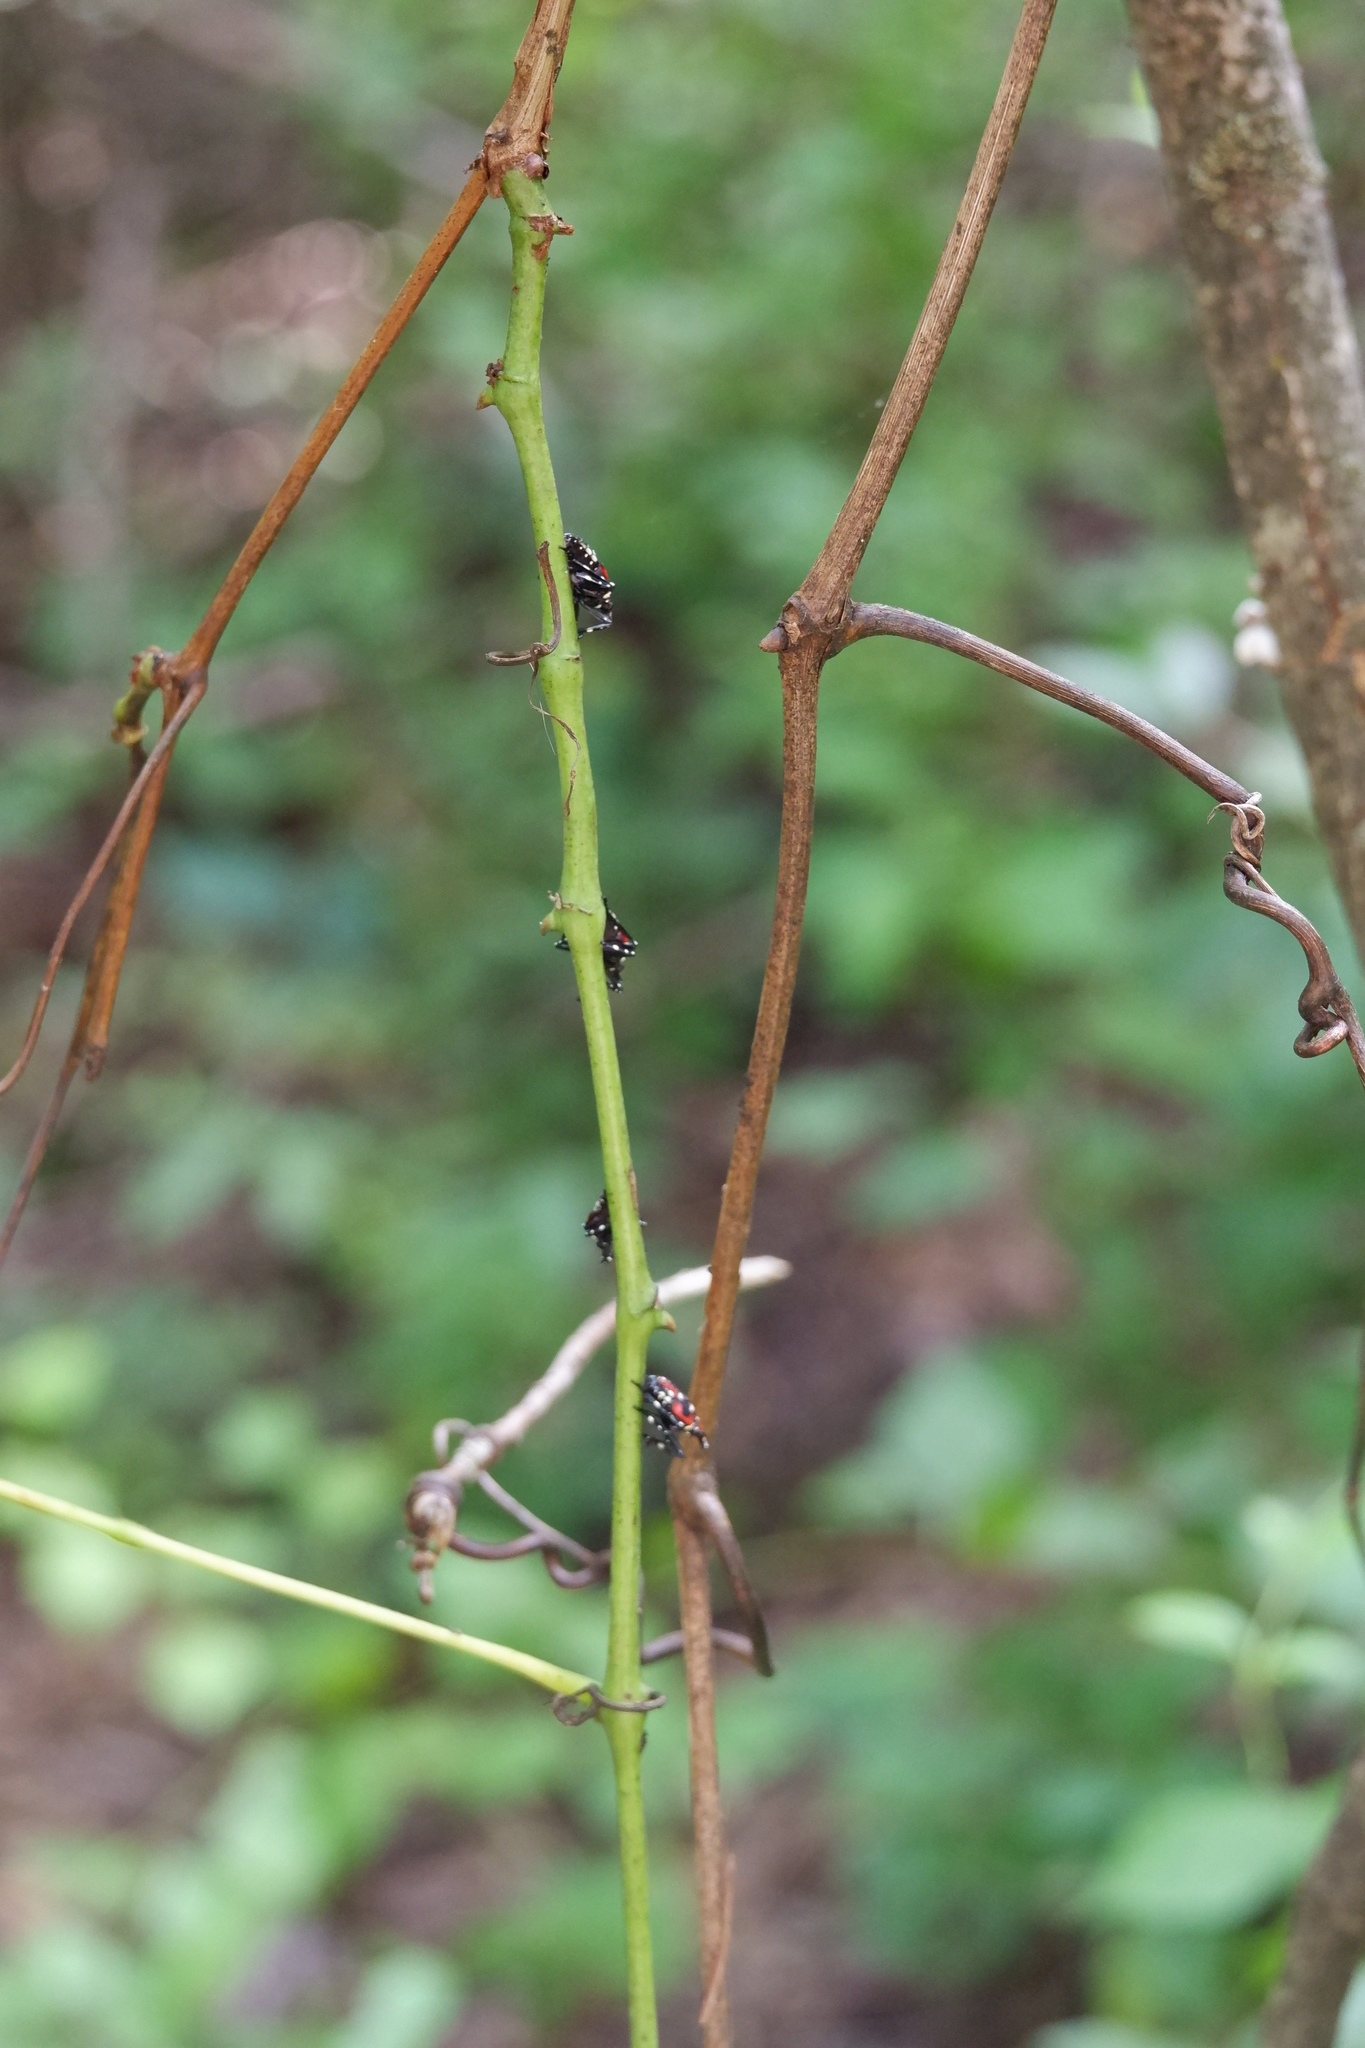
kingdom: Animalia
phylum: Arthropoda
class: Insecta
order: Hemiptera
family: Fulgoridae
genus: Lycorma
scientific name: Lycorma delicatula
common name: Spotted lanternfly
